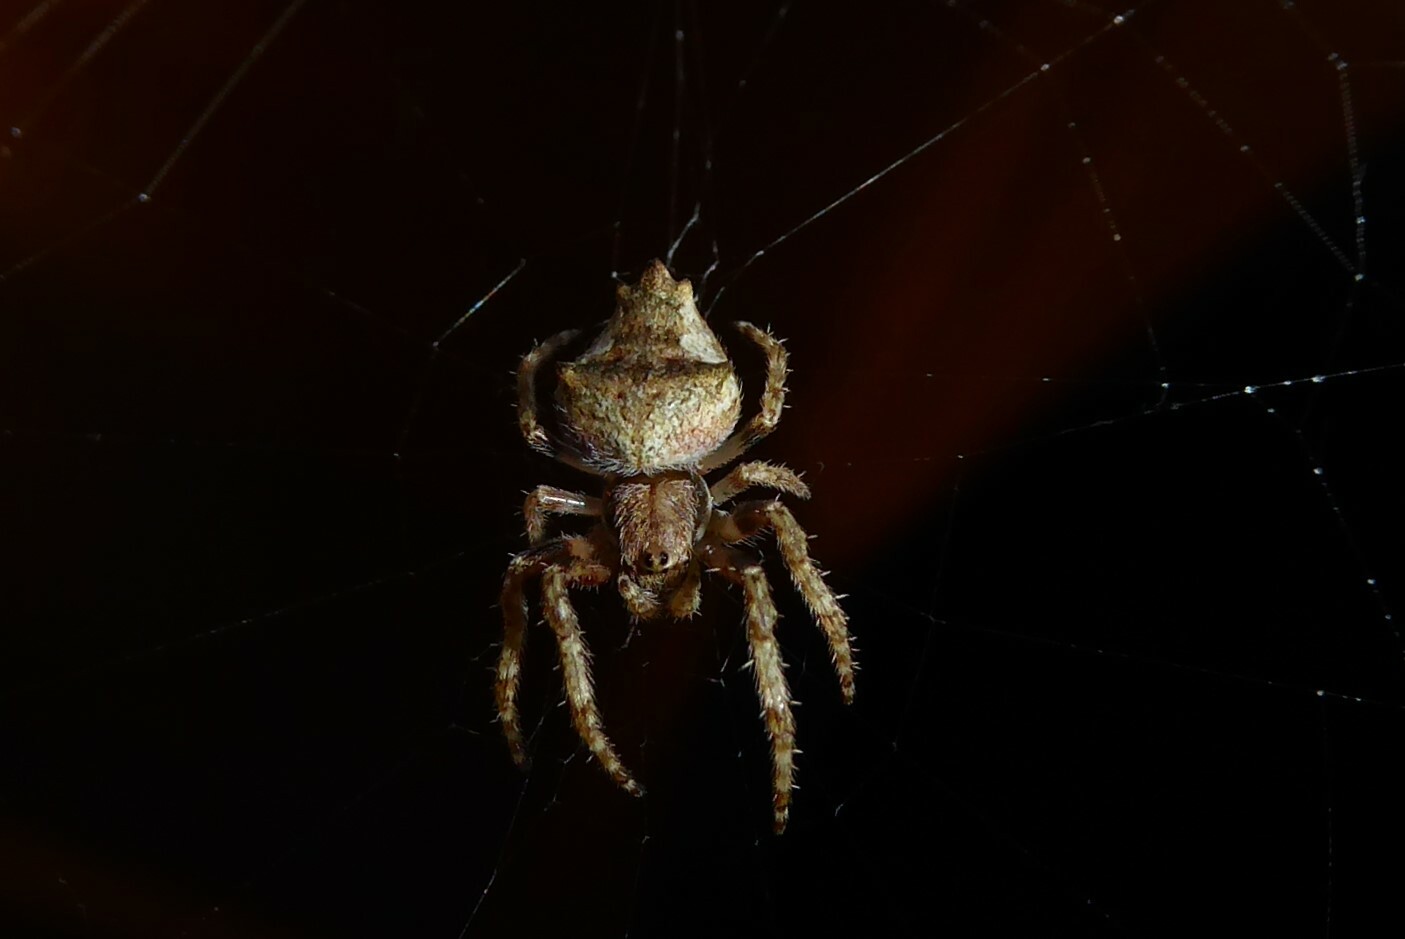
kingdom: Animalia
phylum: Arthropoda
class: Arachnida
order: Araneae
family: Araneidae
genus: Eriophora
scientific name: Eriophora pustulosa
